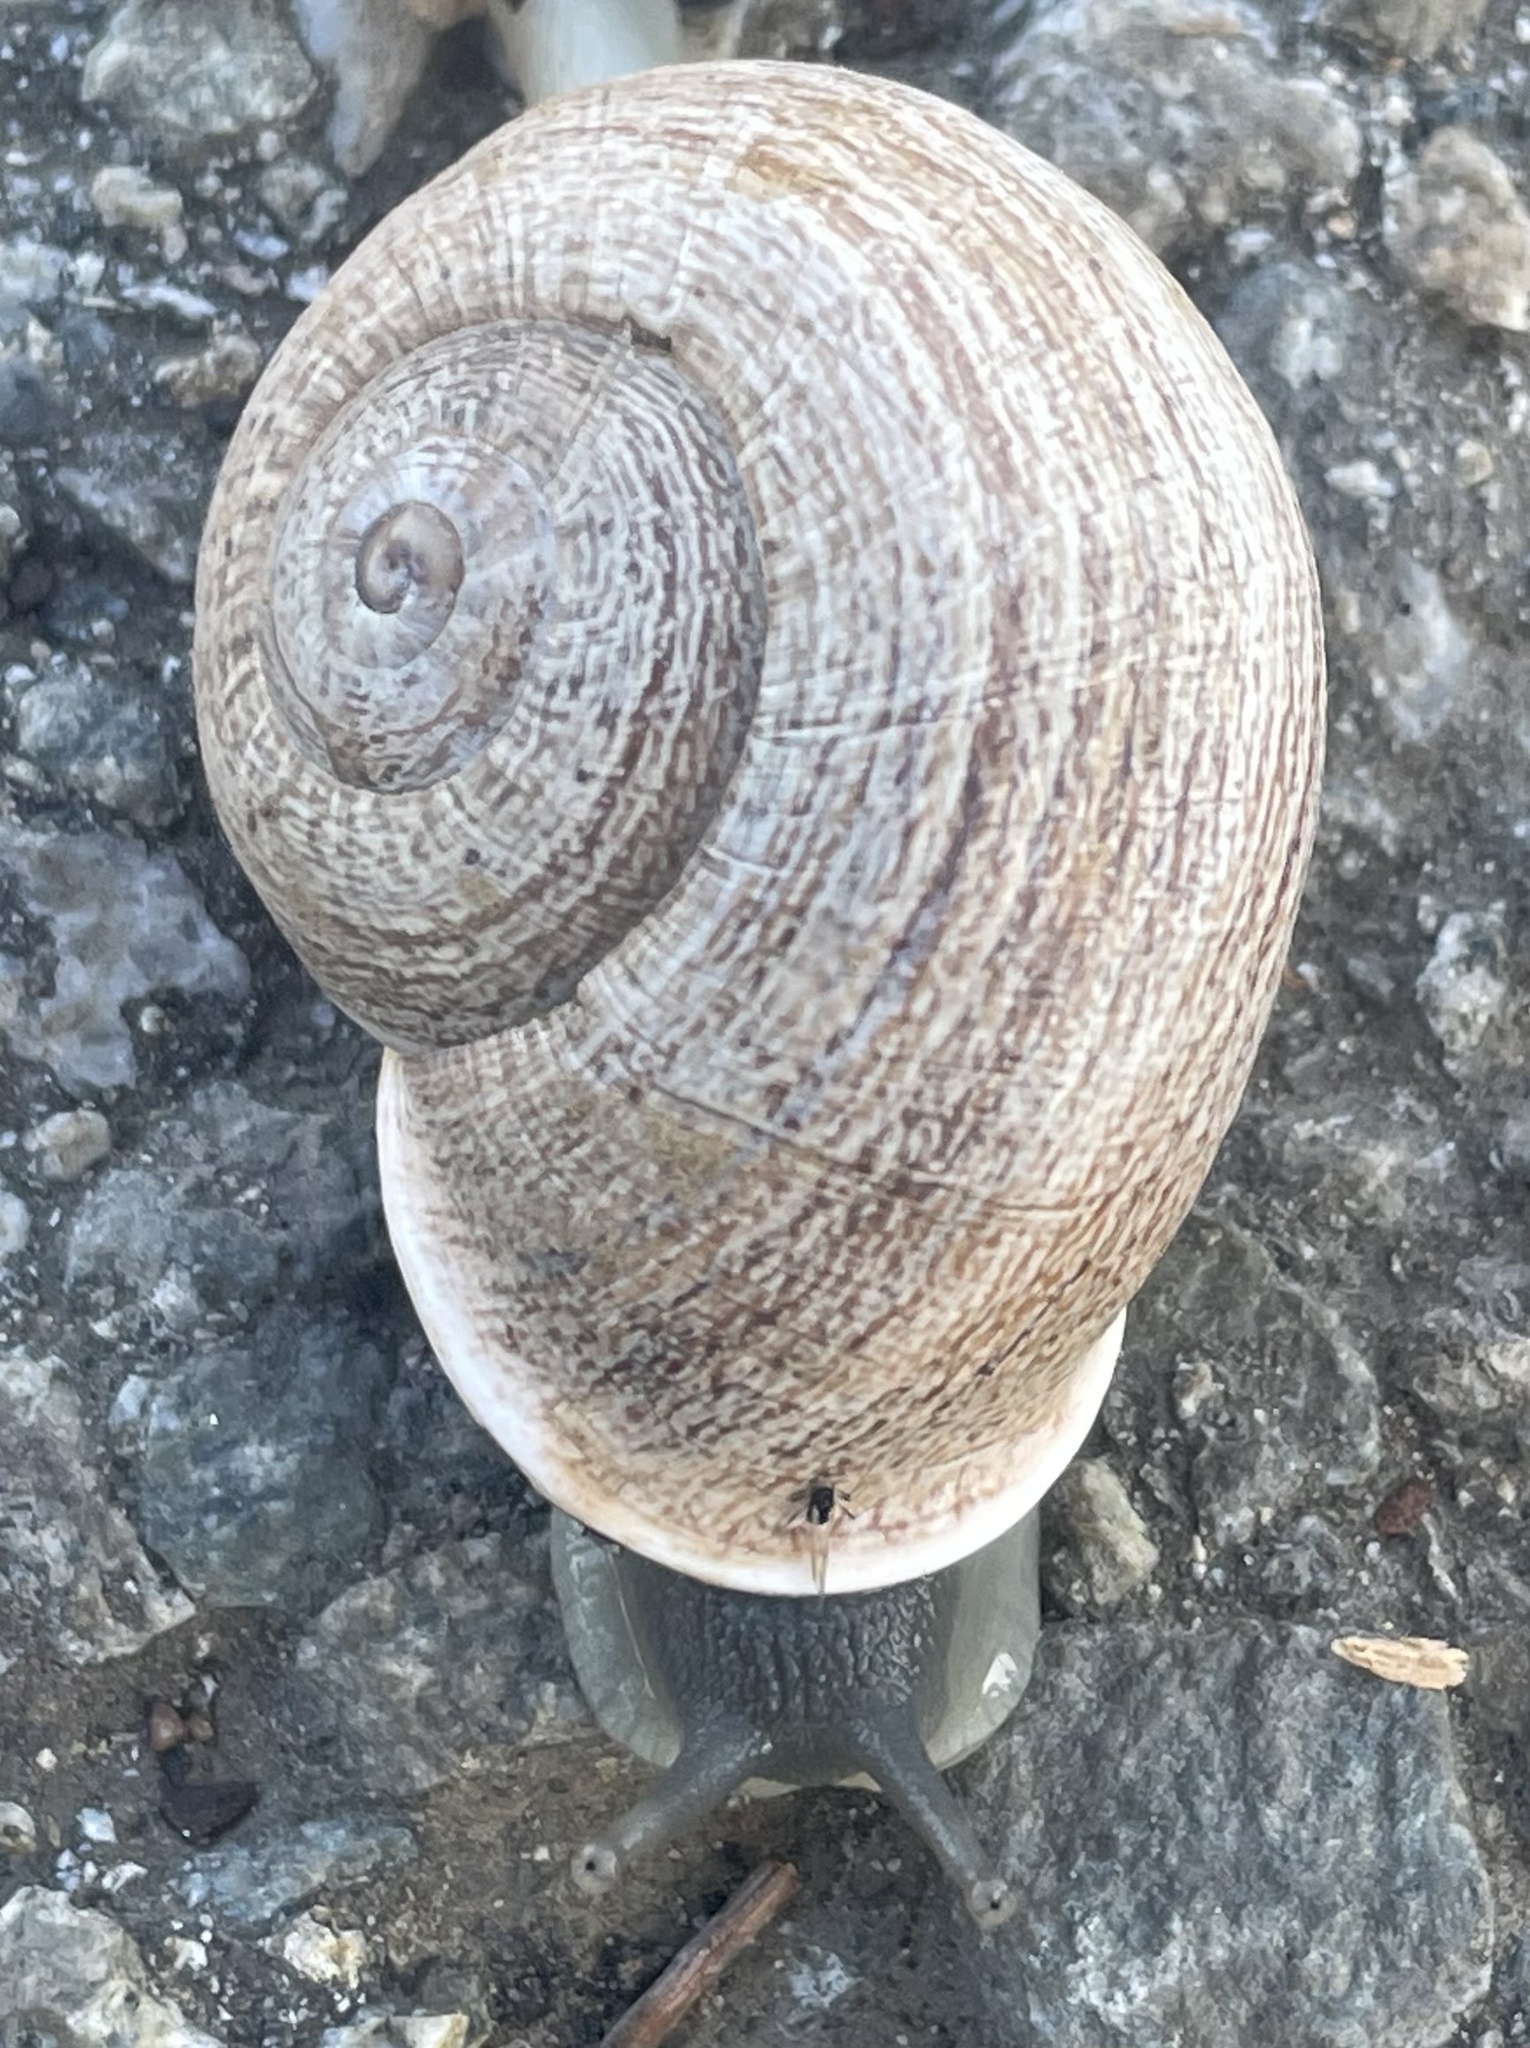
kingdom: Animalia
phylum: Mollusca
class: Gastropoda
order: Stylommatophora
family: Helicidae
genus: Otala
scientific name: Otala lactea
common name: Milk snail
